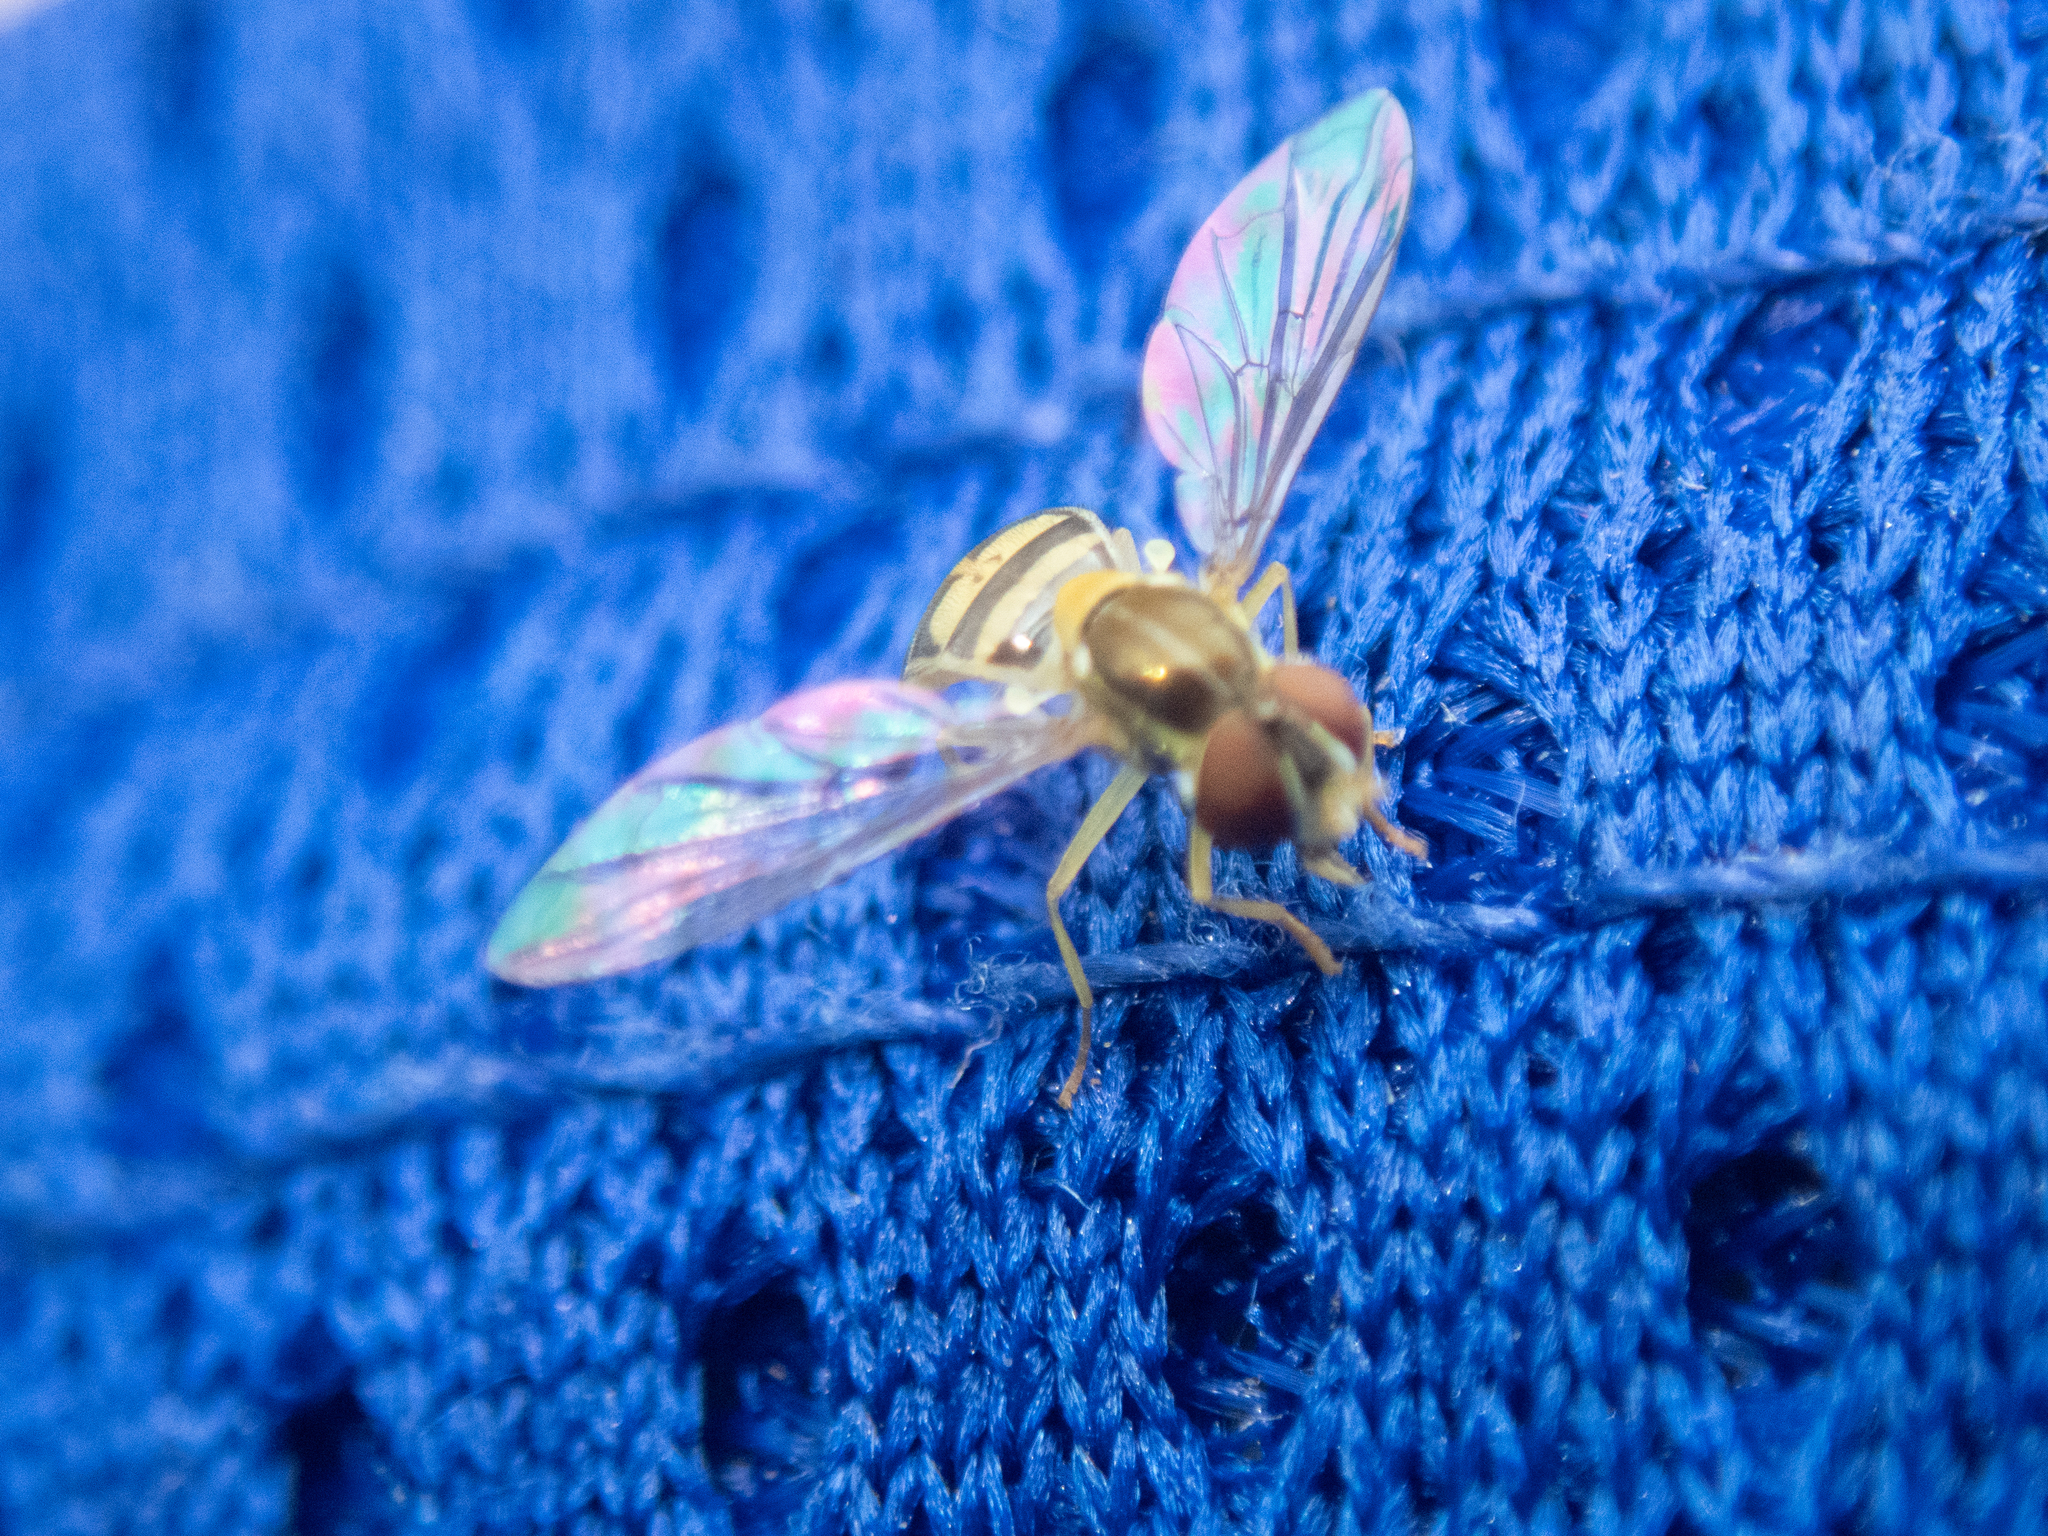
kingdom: Animalia
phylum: Arthropoda
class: Insecta
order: Diptera
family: Syrphidae
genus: Toxomerus
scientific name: Toxomerus marginatus
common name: Syrphid fly
